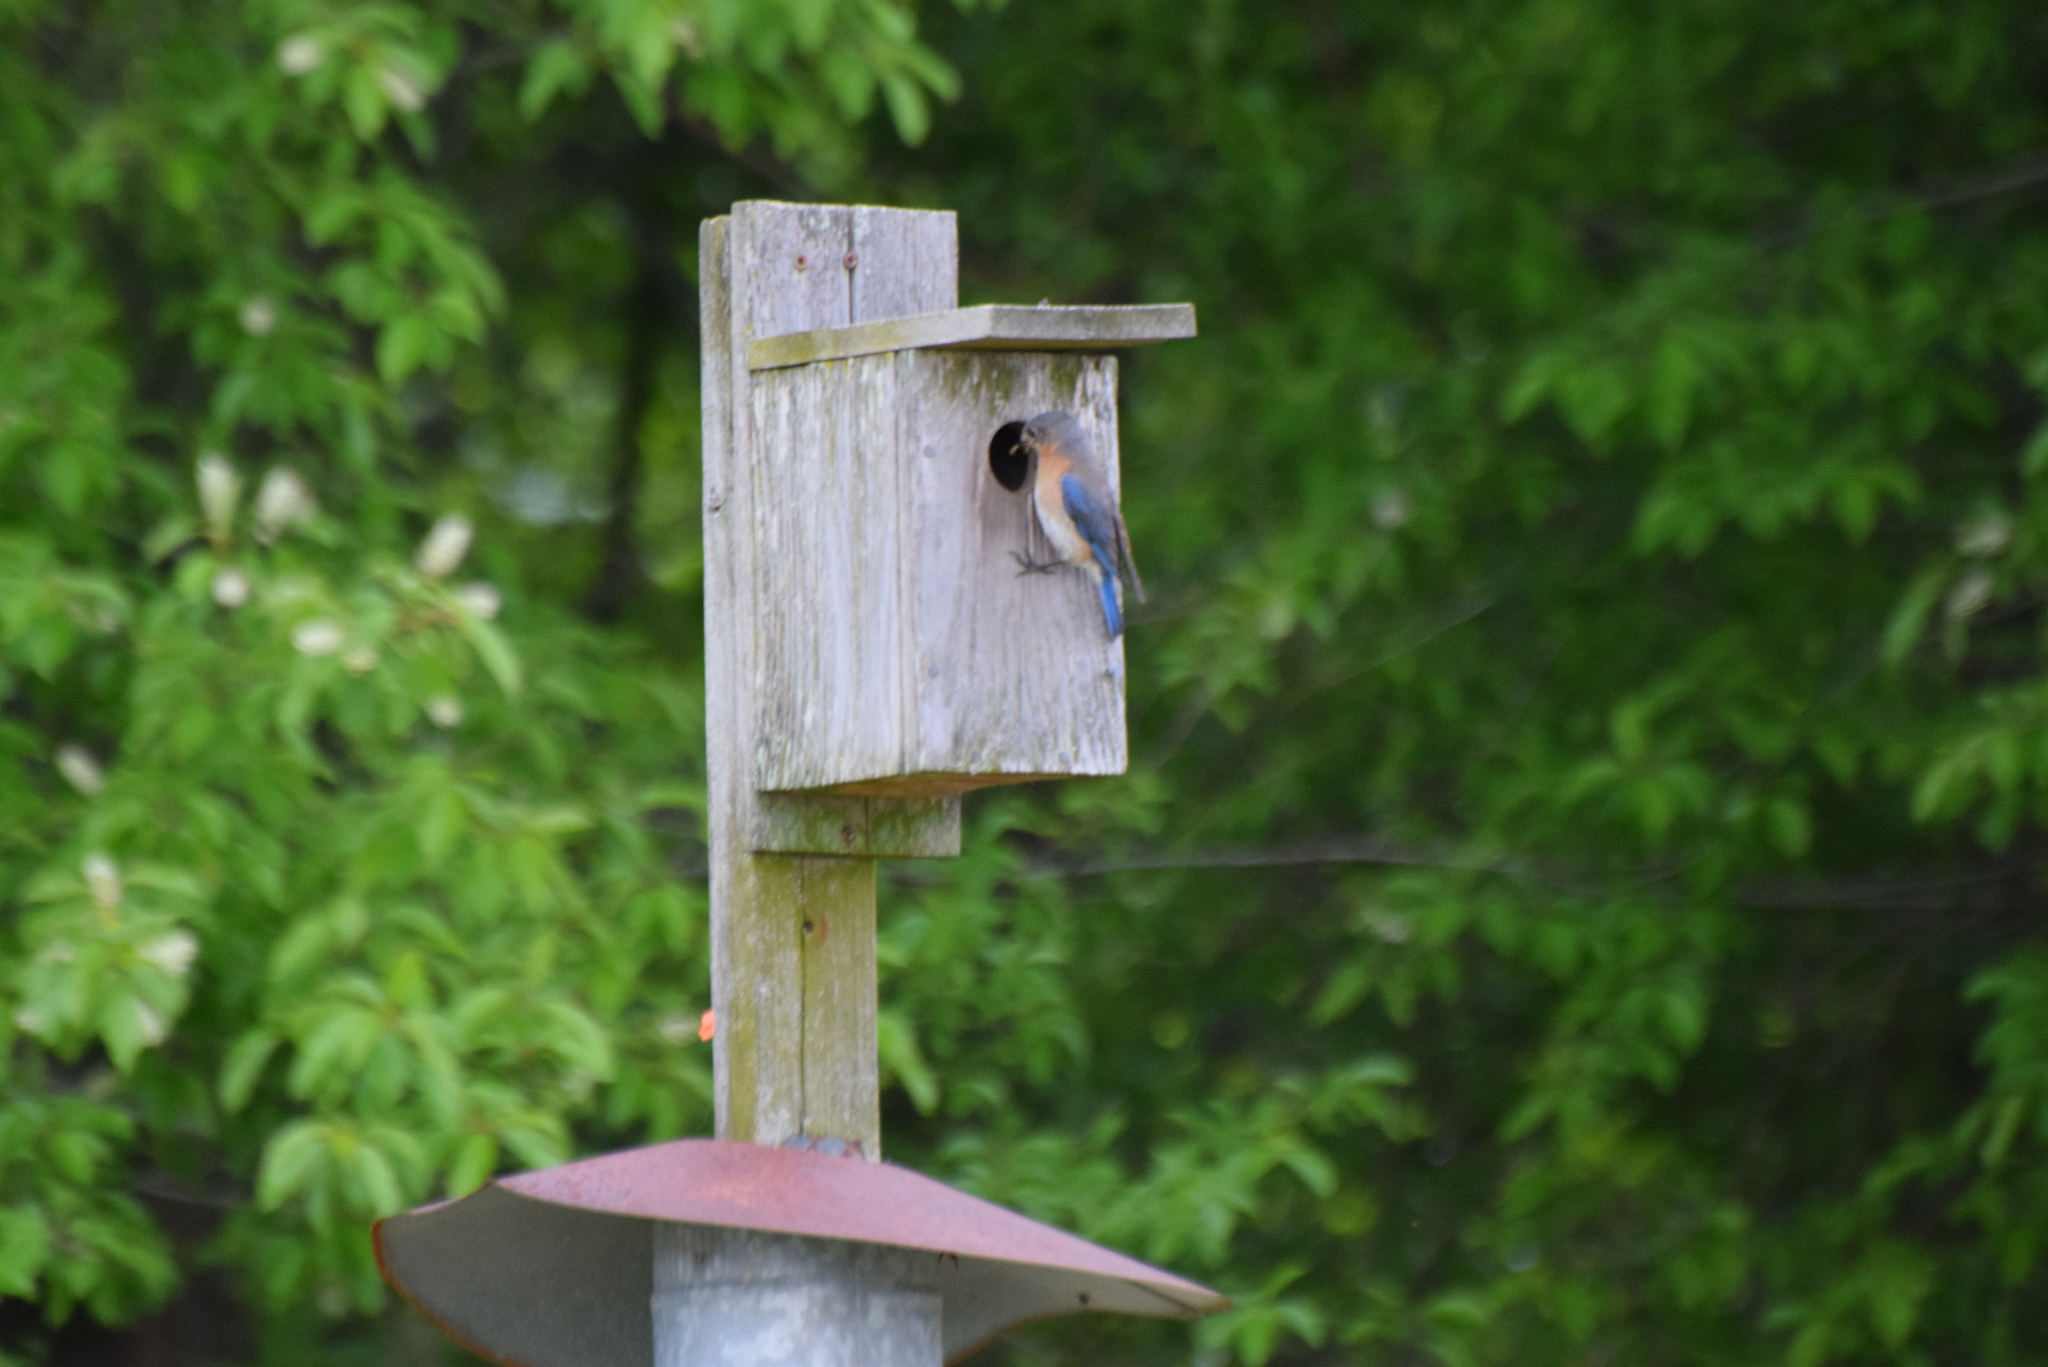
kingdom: Animalia
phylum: Chordata
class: Aves
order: Passeriformes
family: Turdidae
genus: Sialia
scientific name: Sialia sialis
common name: Eastern bluebird
